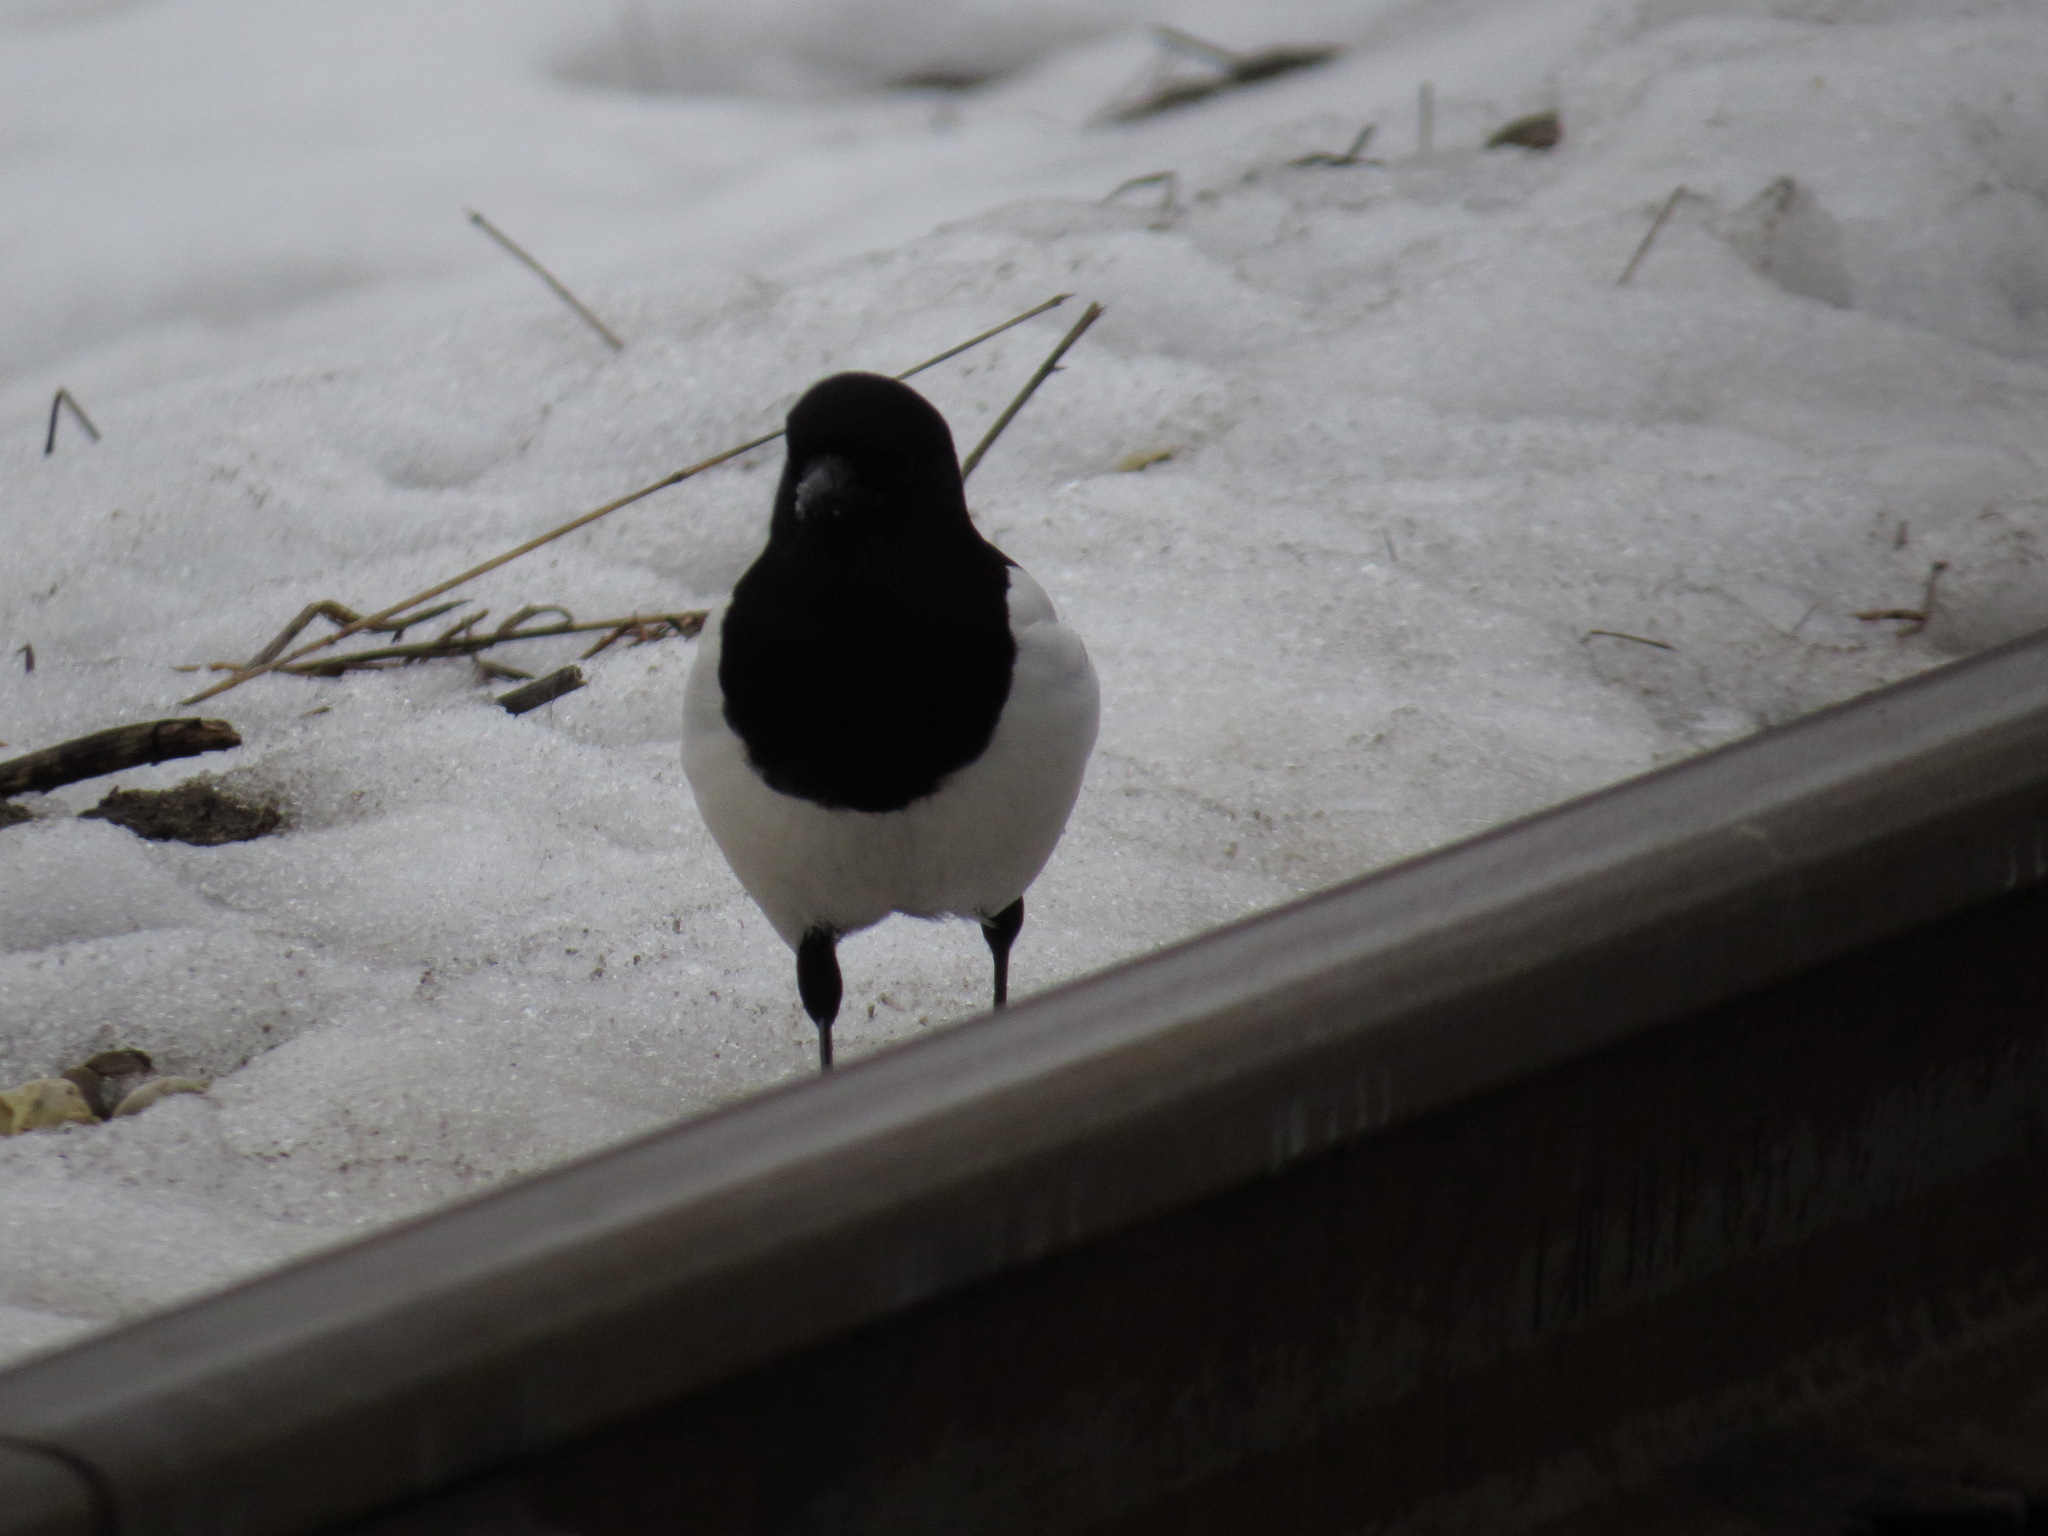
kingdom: Animalia
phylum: Chordata
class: Aves
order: Passeriformes
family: Corvidae
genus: Pica
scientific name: Pica pica
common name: Eurasian magpie
